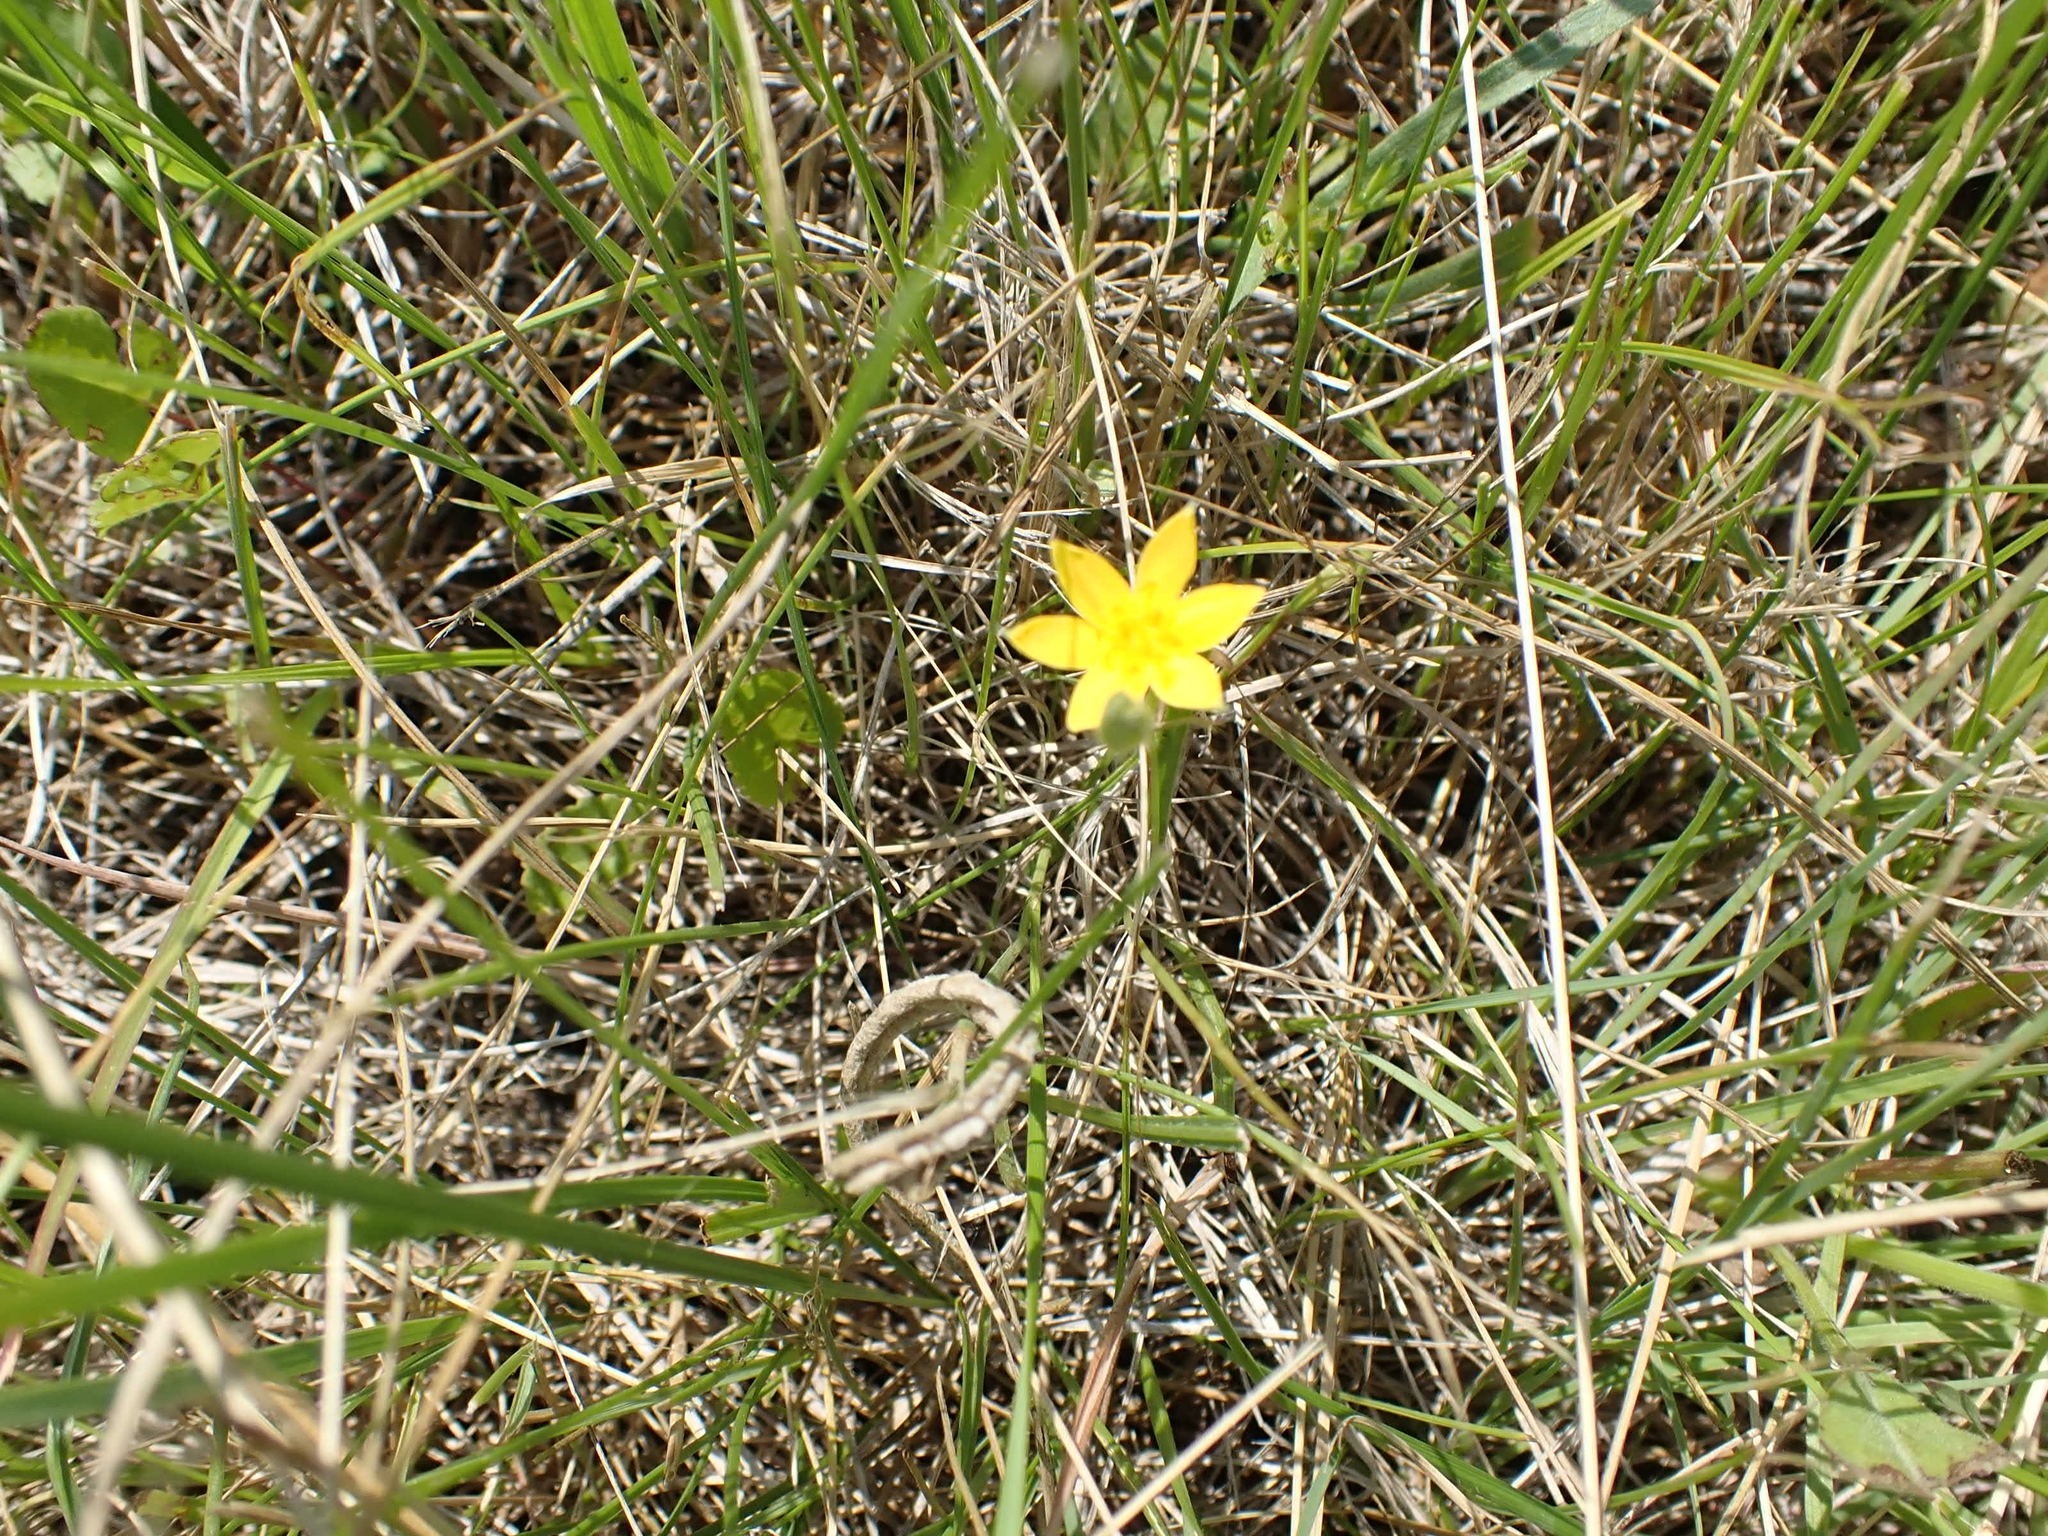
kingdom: Plantae
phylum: Tracheophyta
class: Liliopsida
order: Asparagales
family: Hypoxidaceae
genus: Hypoxis
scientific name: Hypoxis hirsuta
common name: Common goldstar
